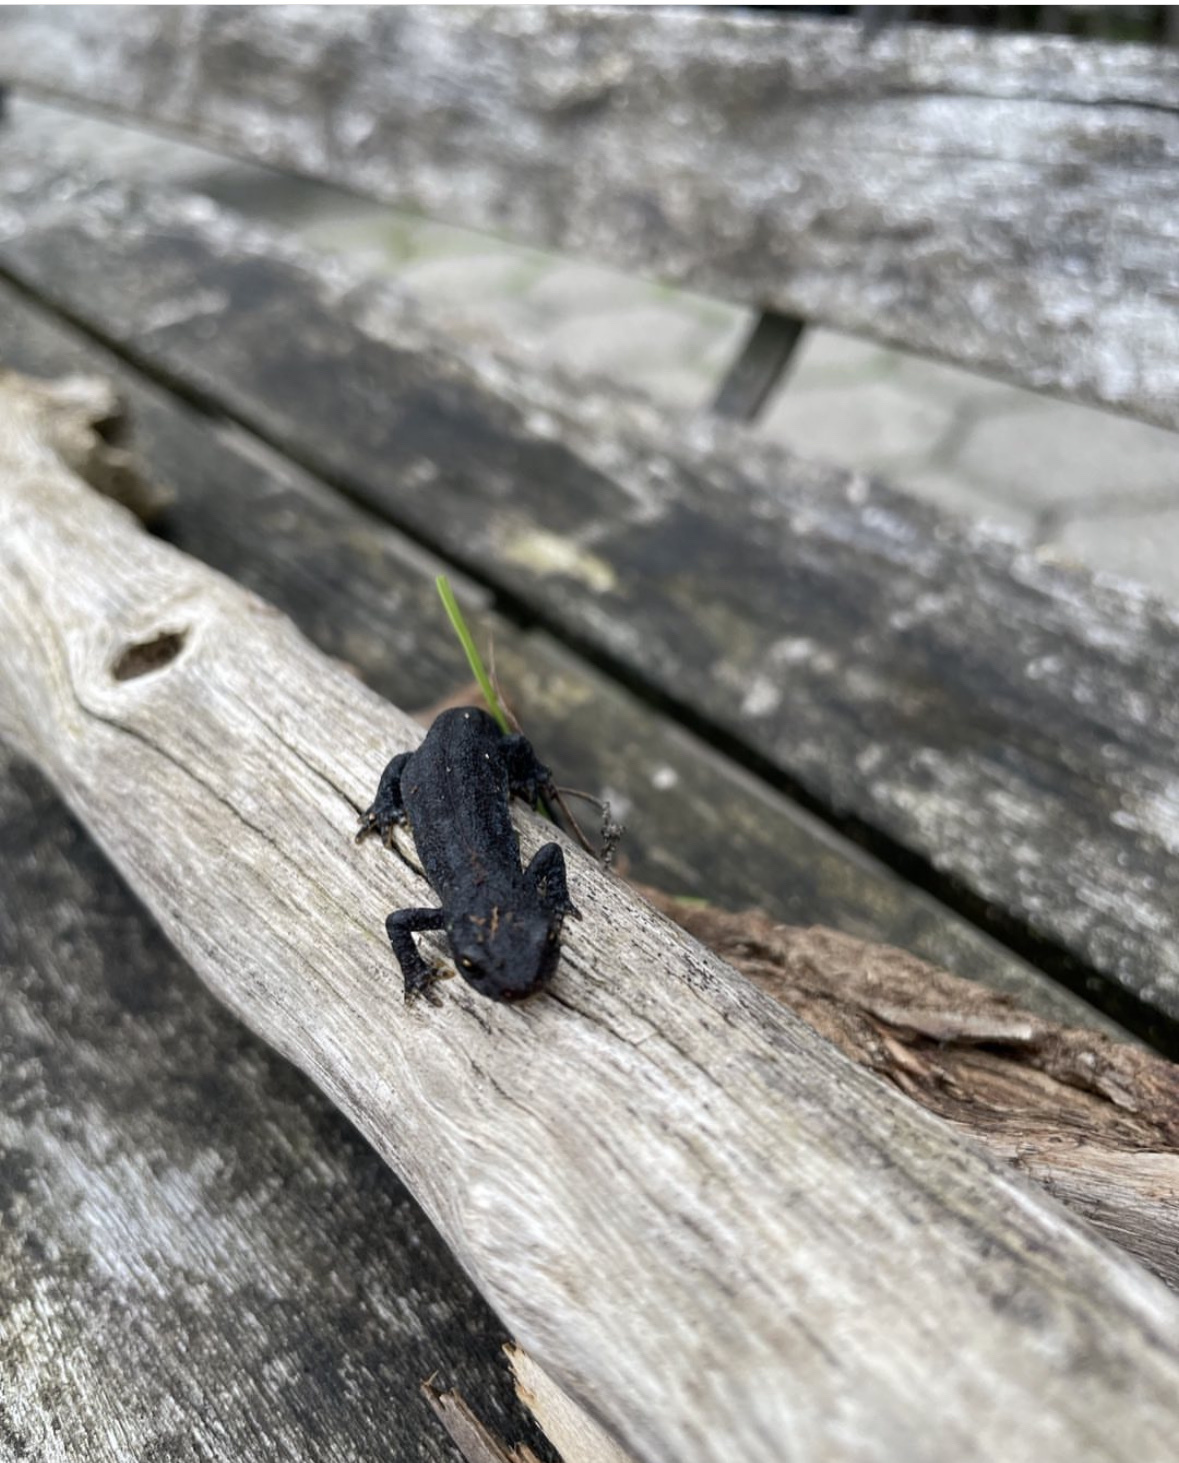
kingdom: Animalia
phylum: Chordata
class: Amphibia
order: Caudata
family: Salamandridae
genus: Ichthyosaura
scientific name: Ichthyosaura alpestris
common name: Alpine newt
